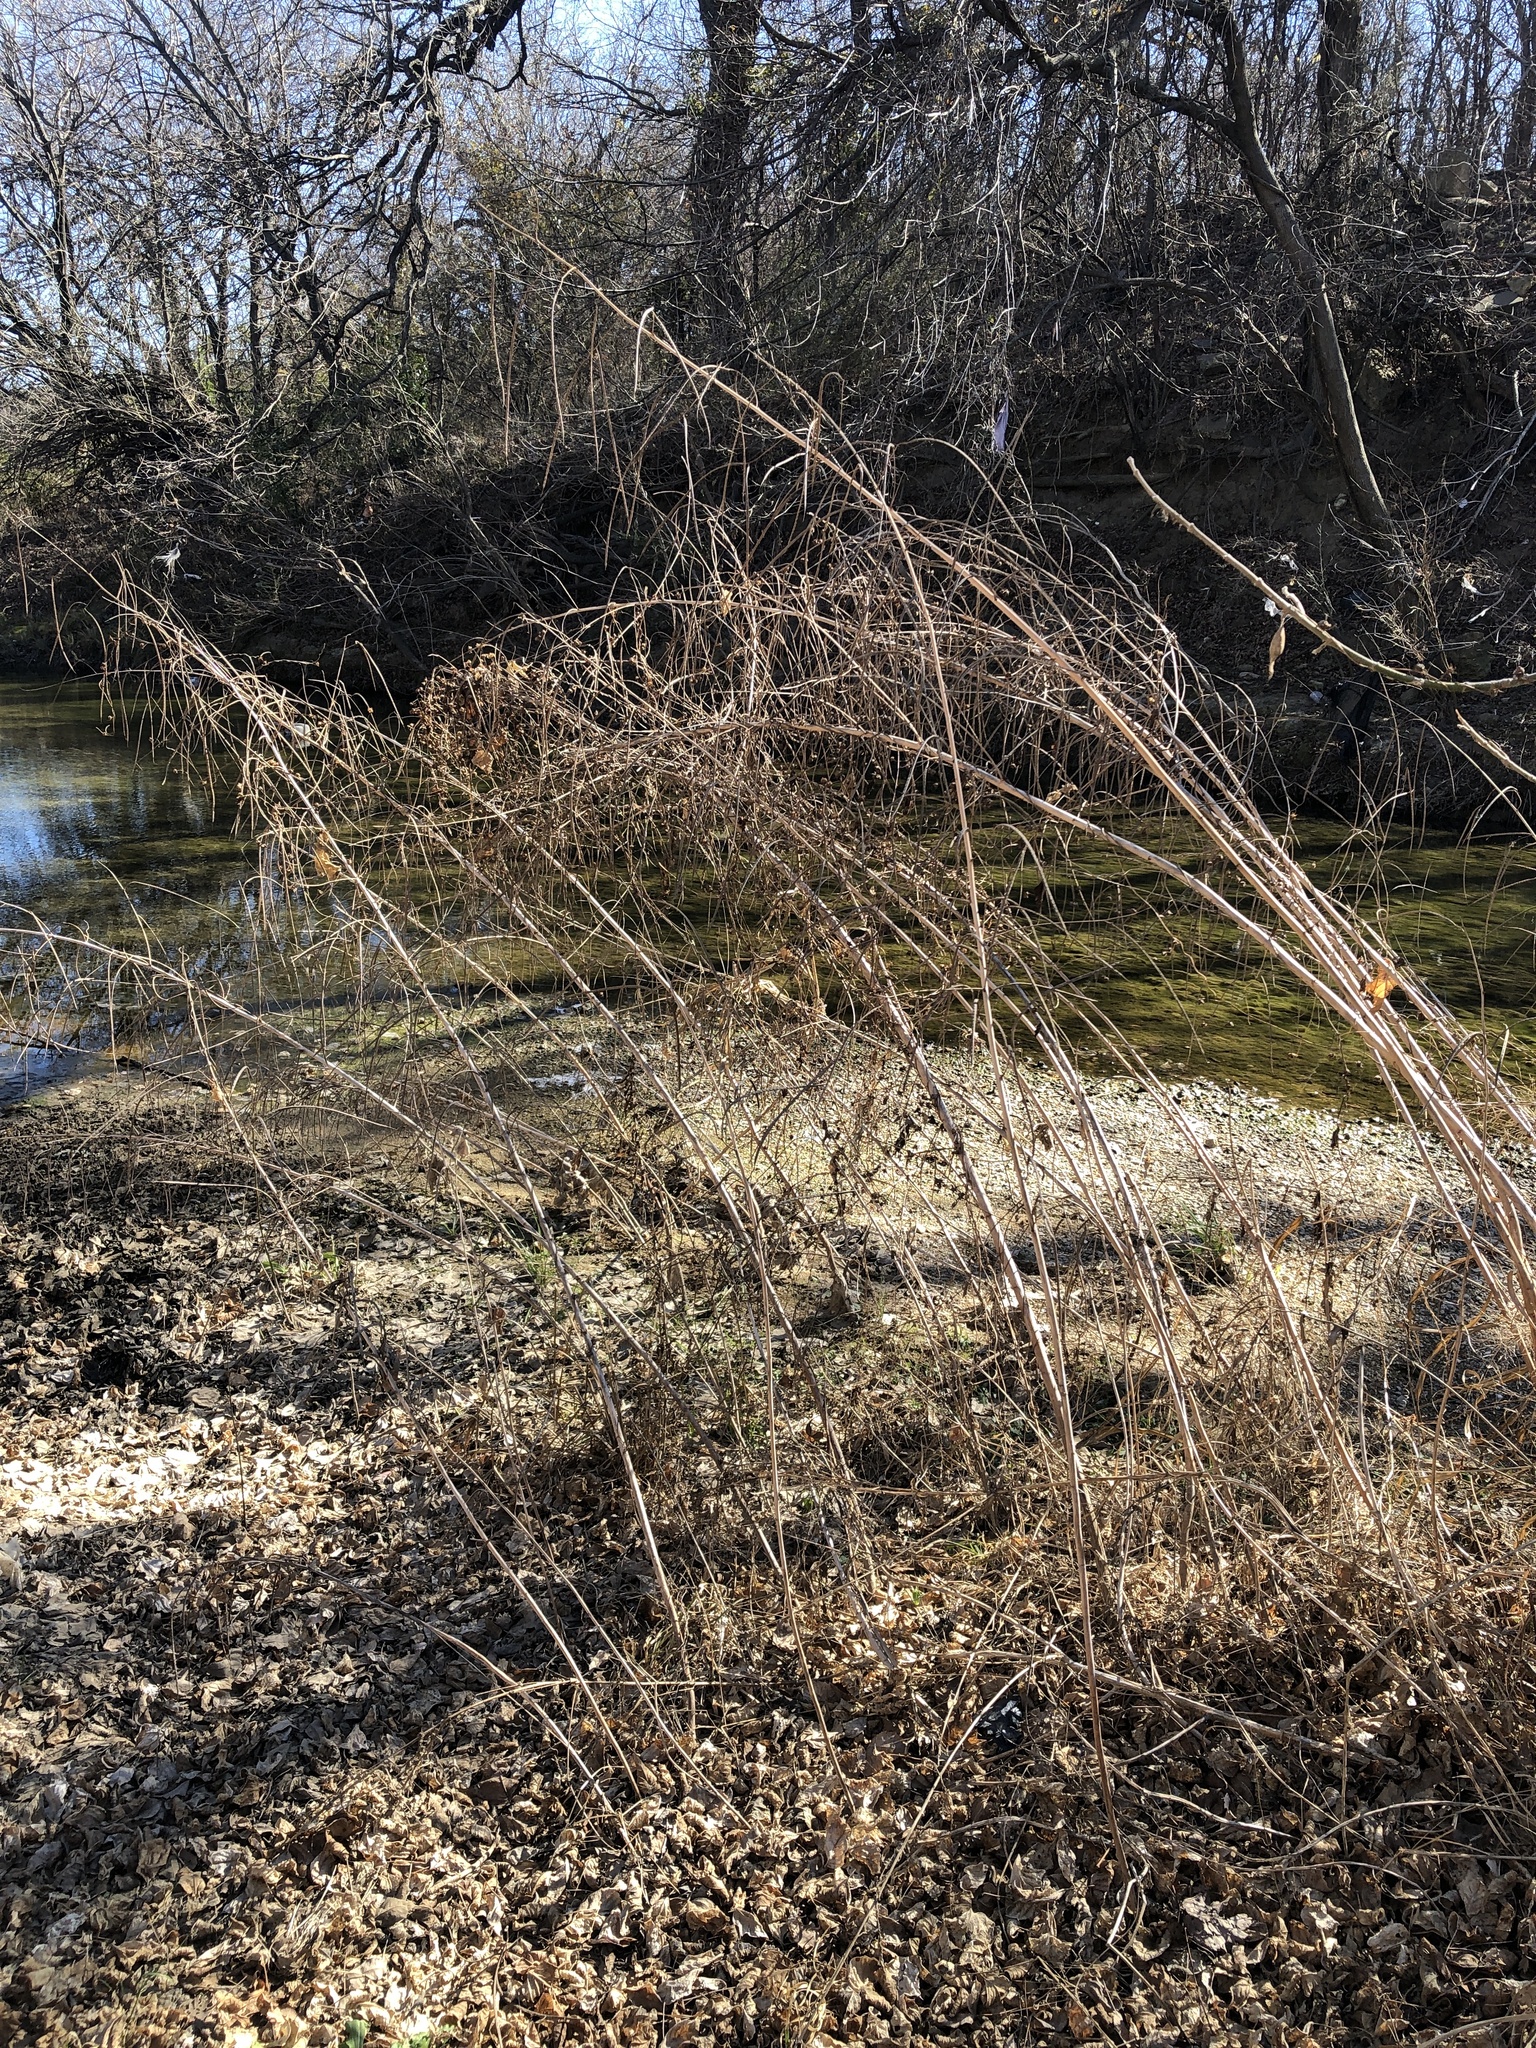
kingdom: Plantae
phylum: Tracheophyta
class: Magnoliopsida
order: Fabales
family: Fabaceae
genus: Sesbania
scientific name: Sesbania herbacea
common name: Bigpod sesbania
